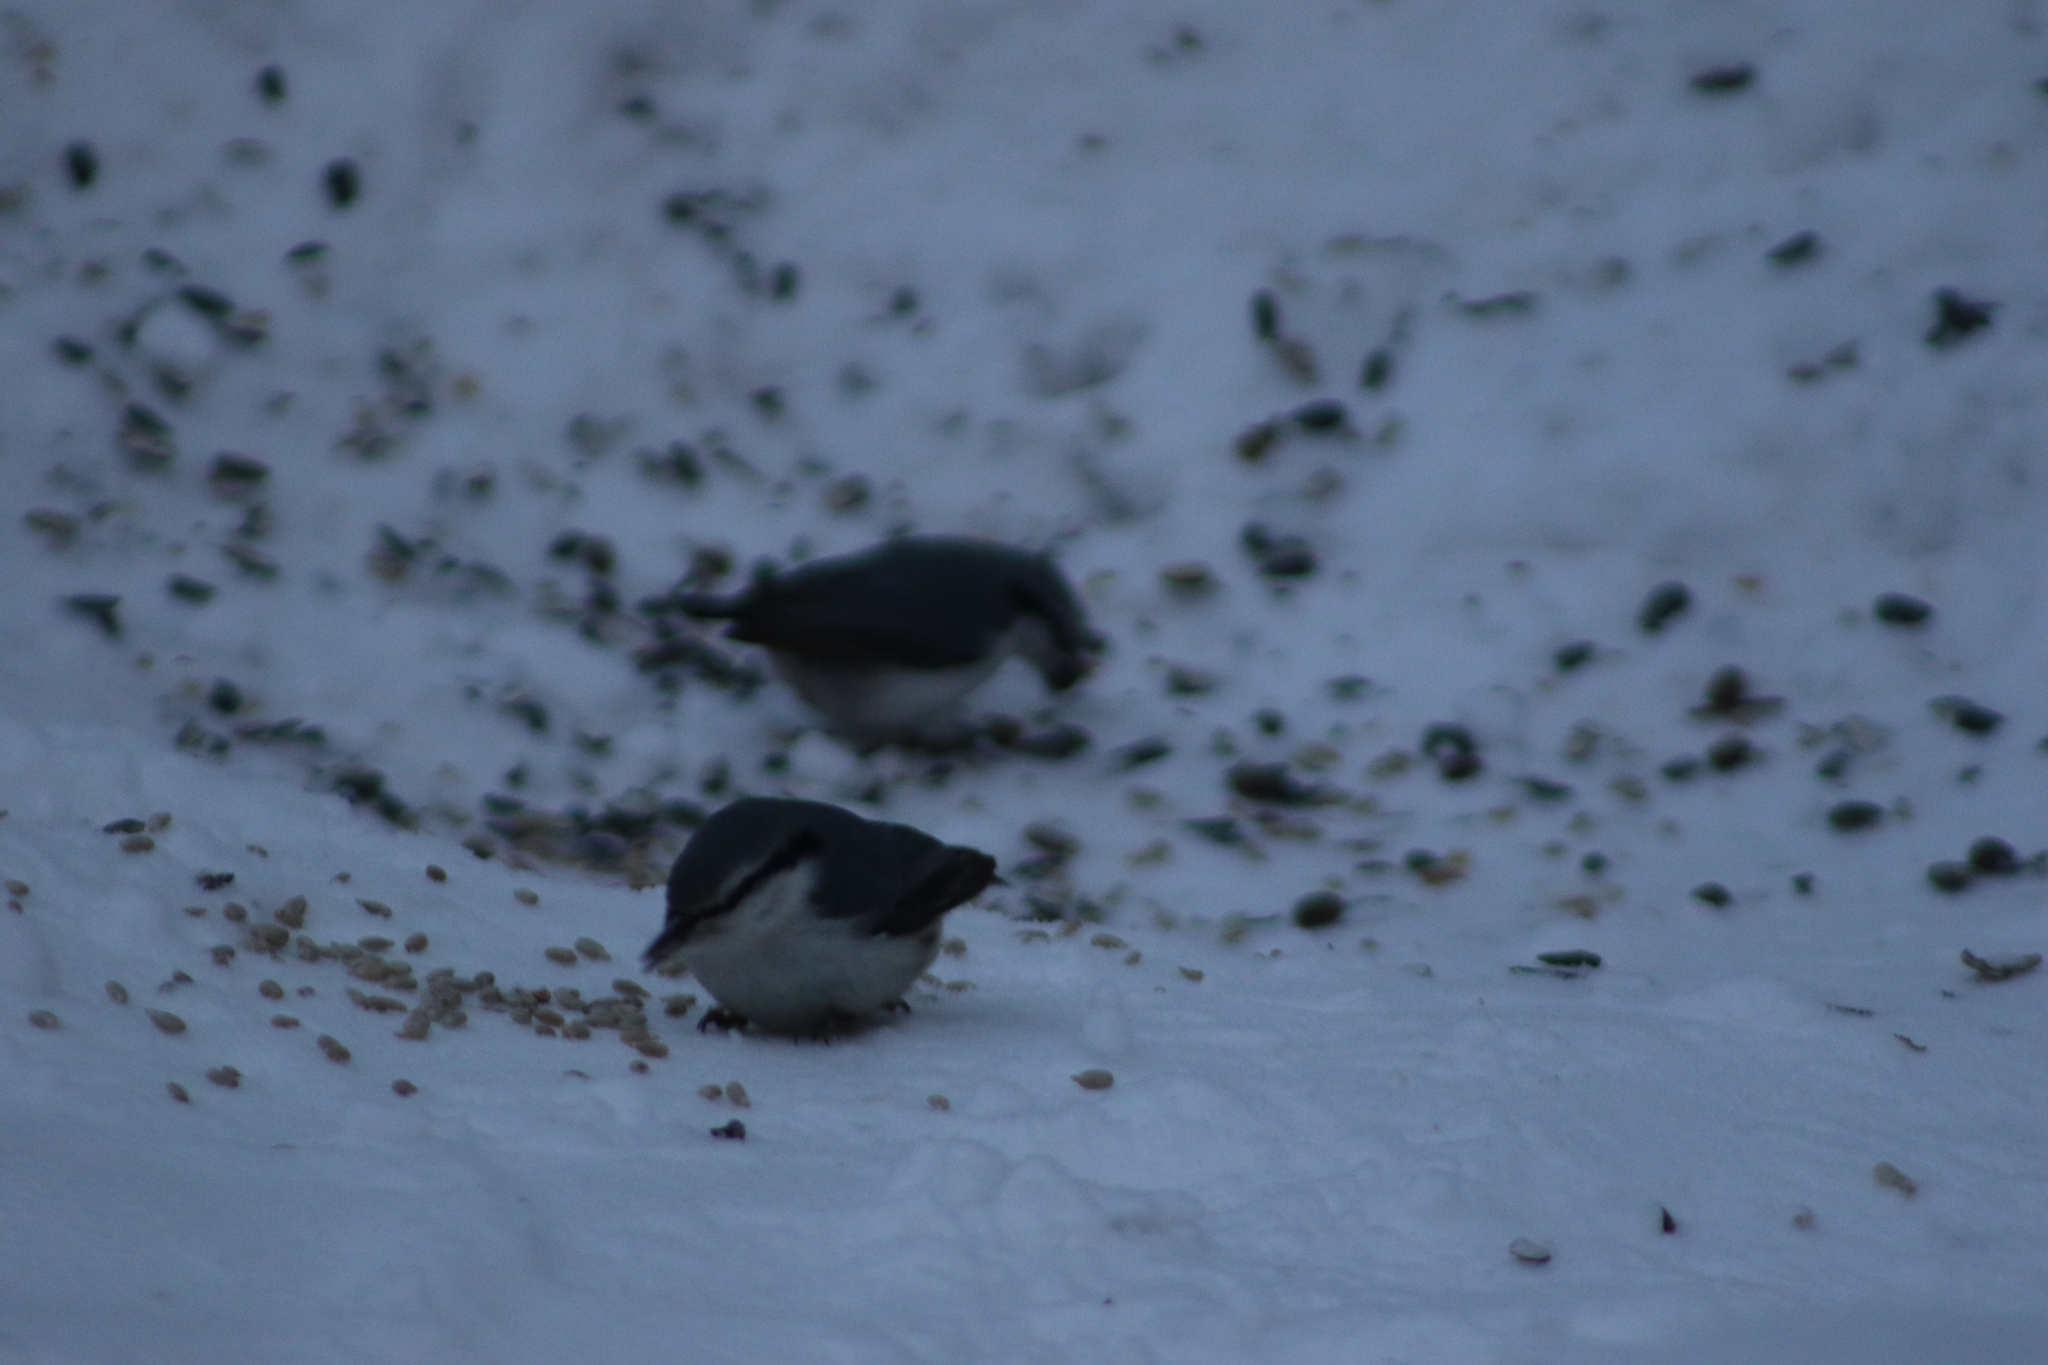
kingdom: Animalia
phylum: Chordata
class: Aves
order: Passeriformes
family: Sittidae
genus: Sitta
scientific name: Sitta europaea
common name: Eurasian nuthatch
